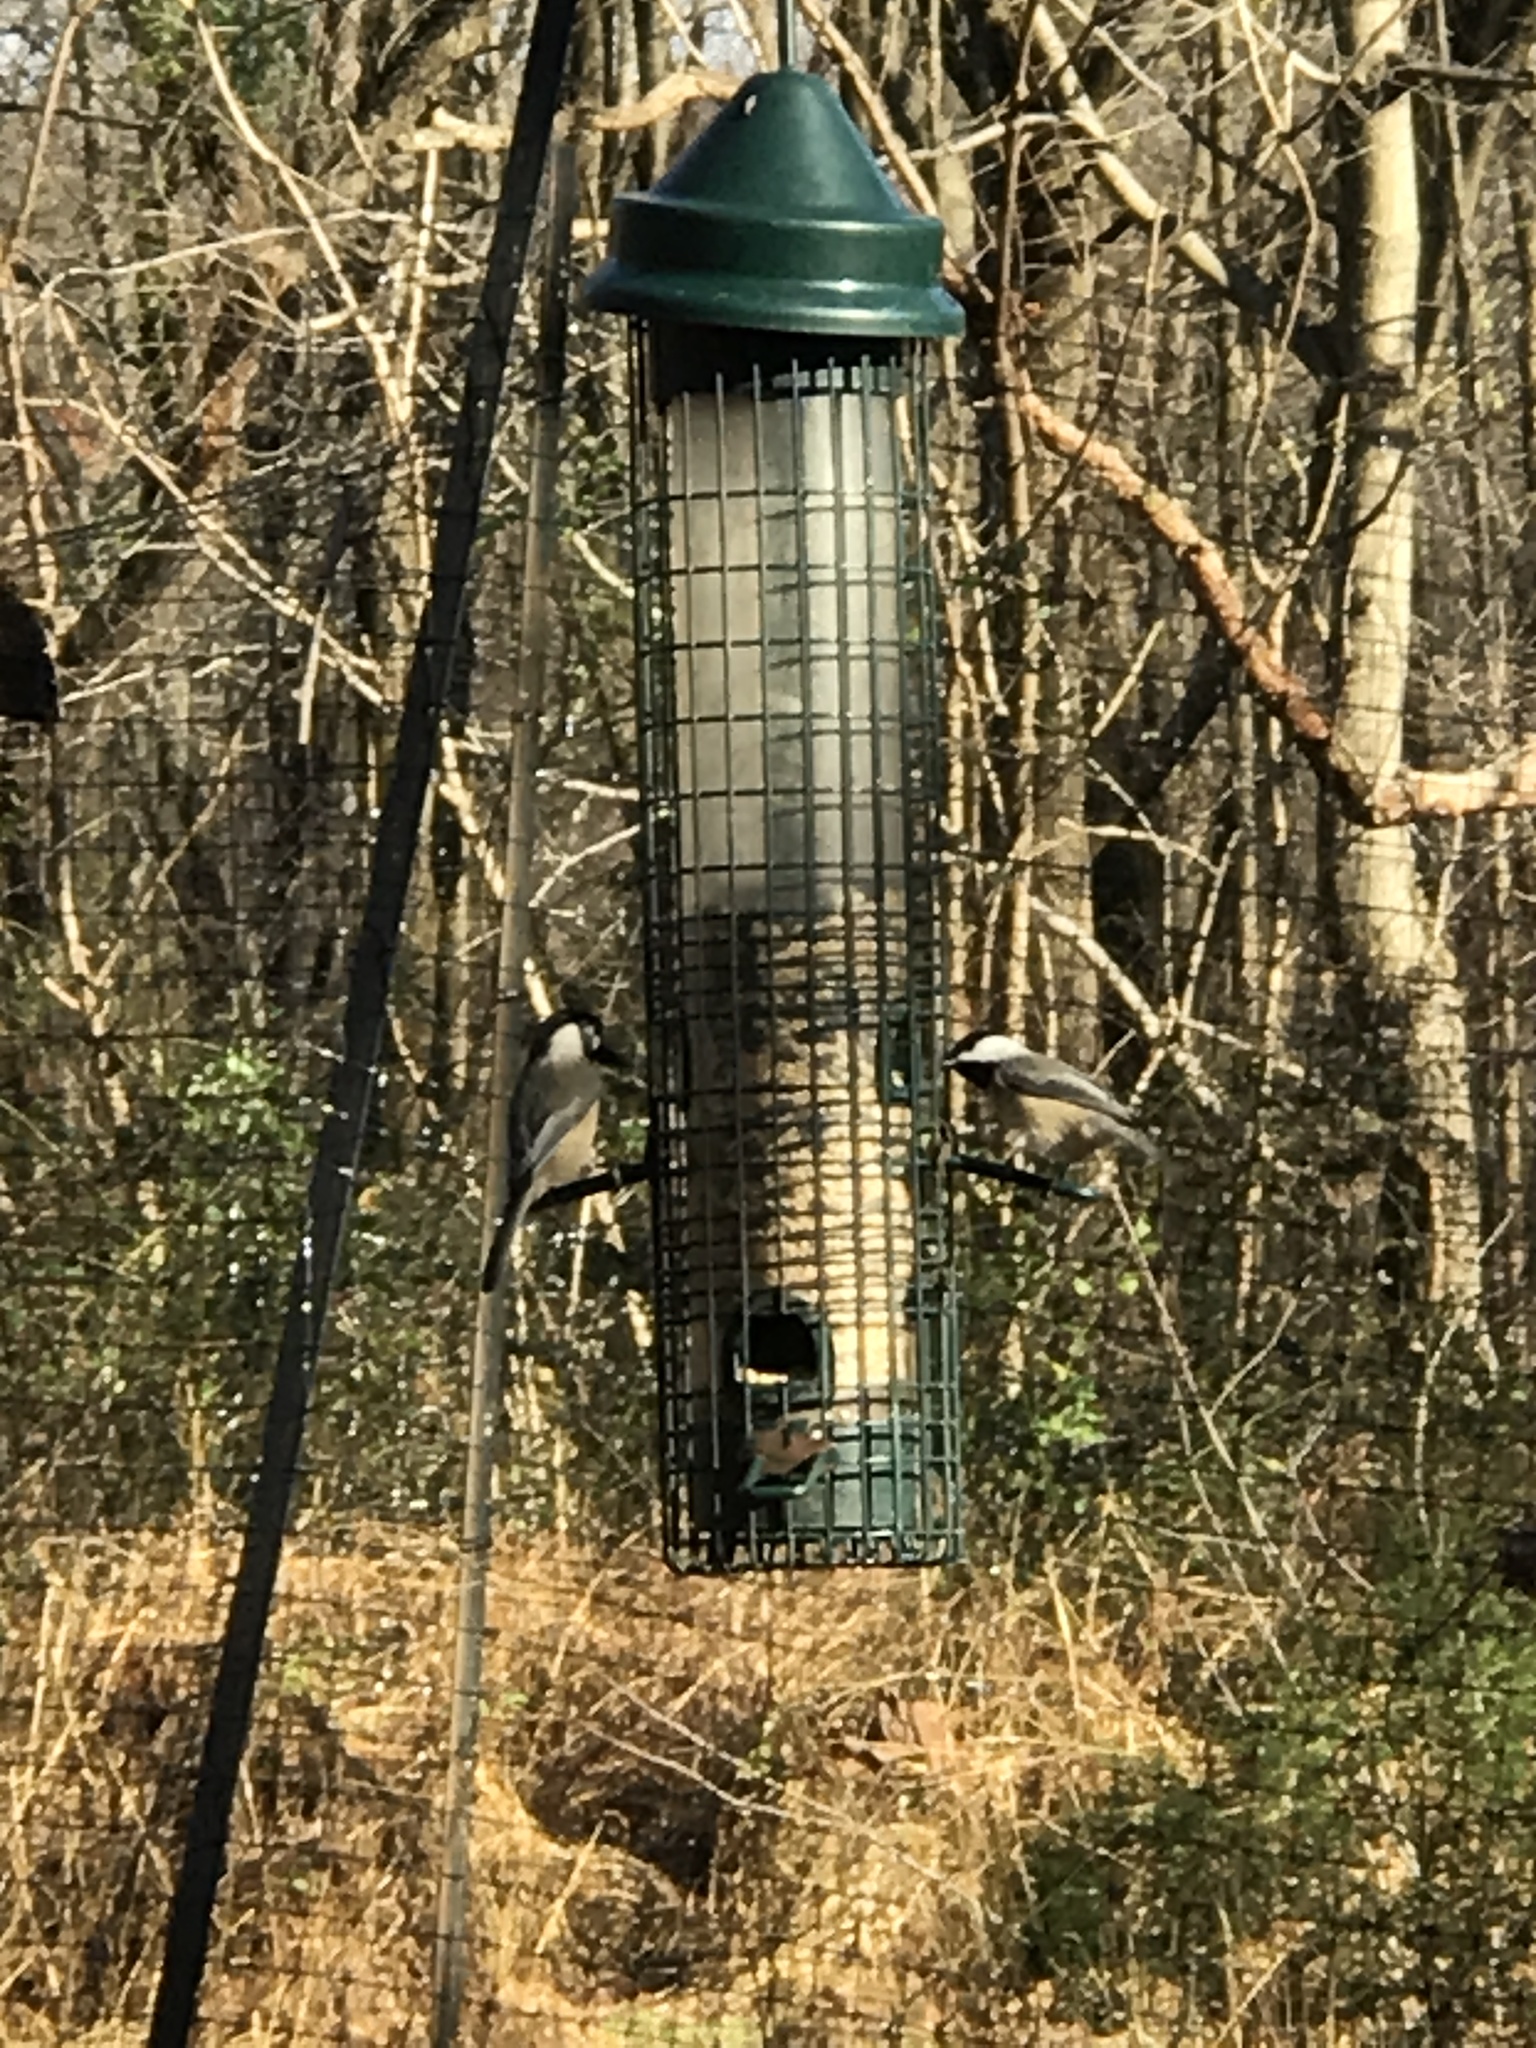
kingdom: Animalia
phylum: Chordata
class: Aves
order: Passeriformes
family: Paridae
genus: Poecile
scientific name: Poecile carolinensis
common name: Carolina chickadee
